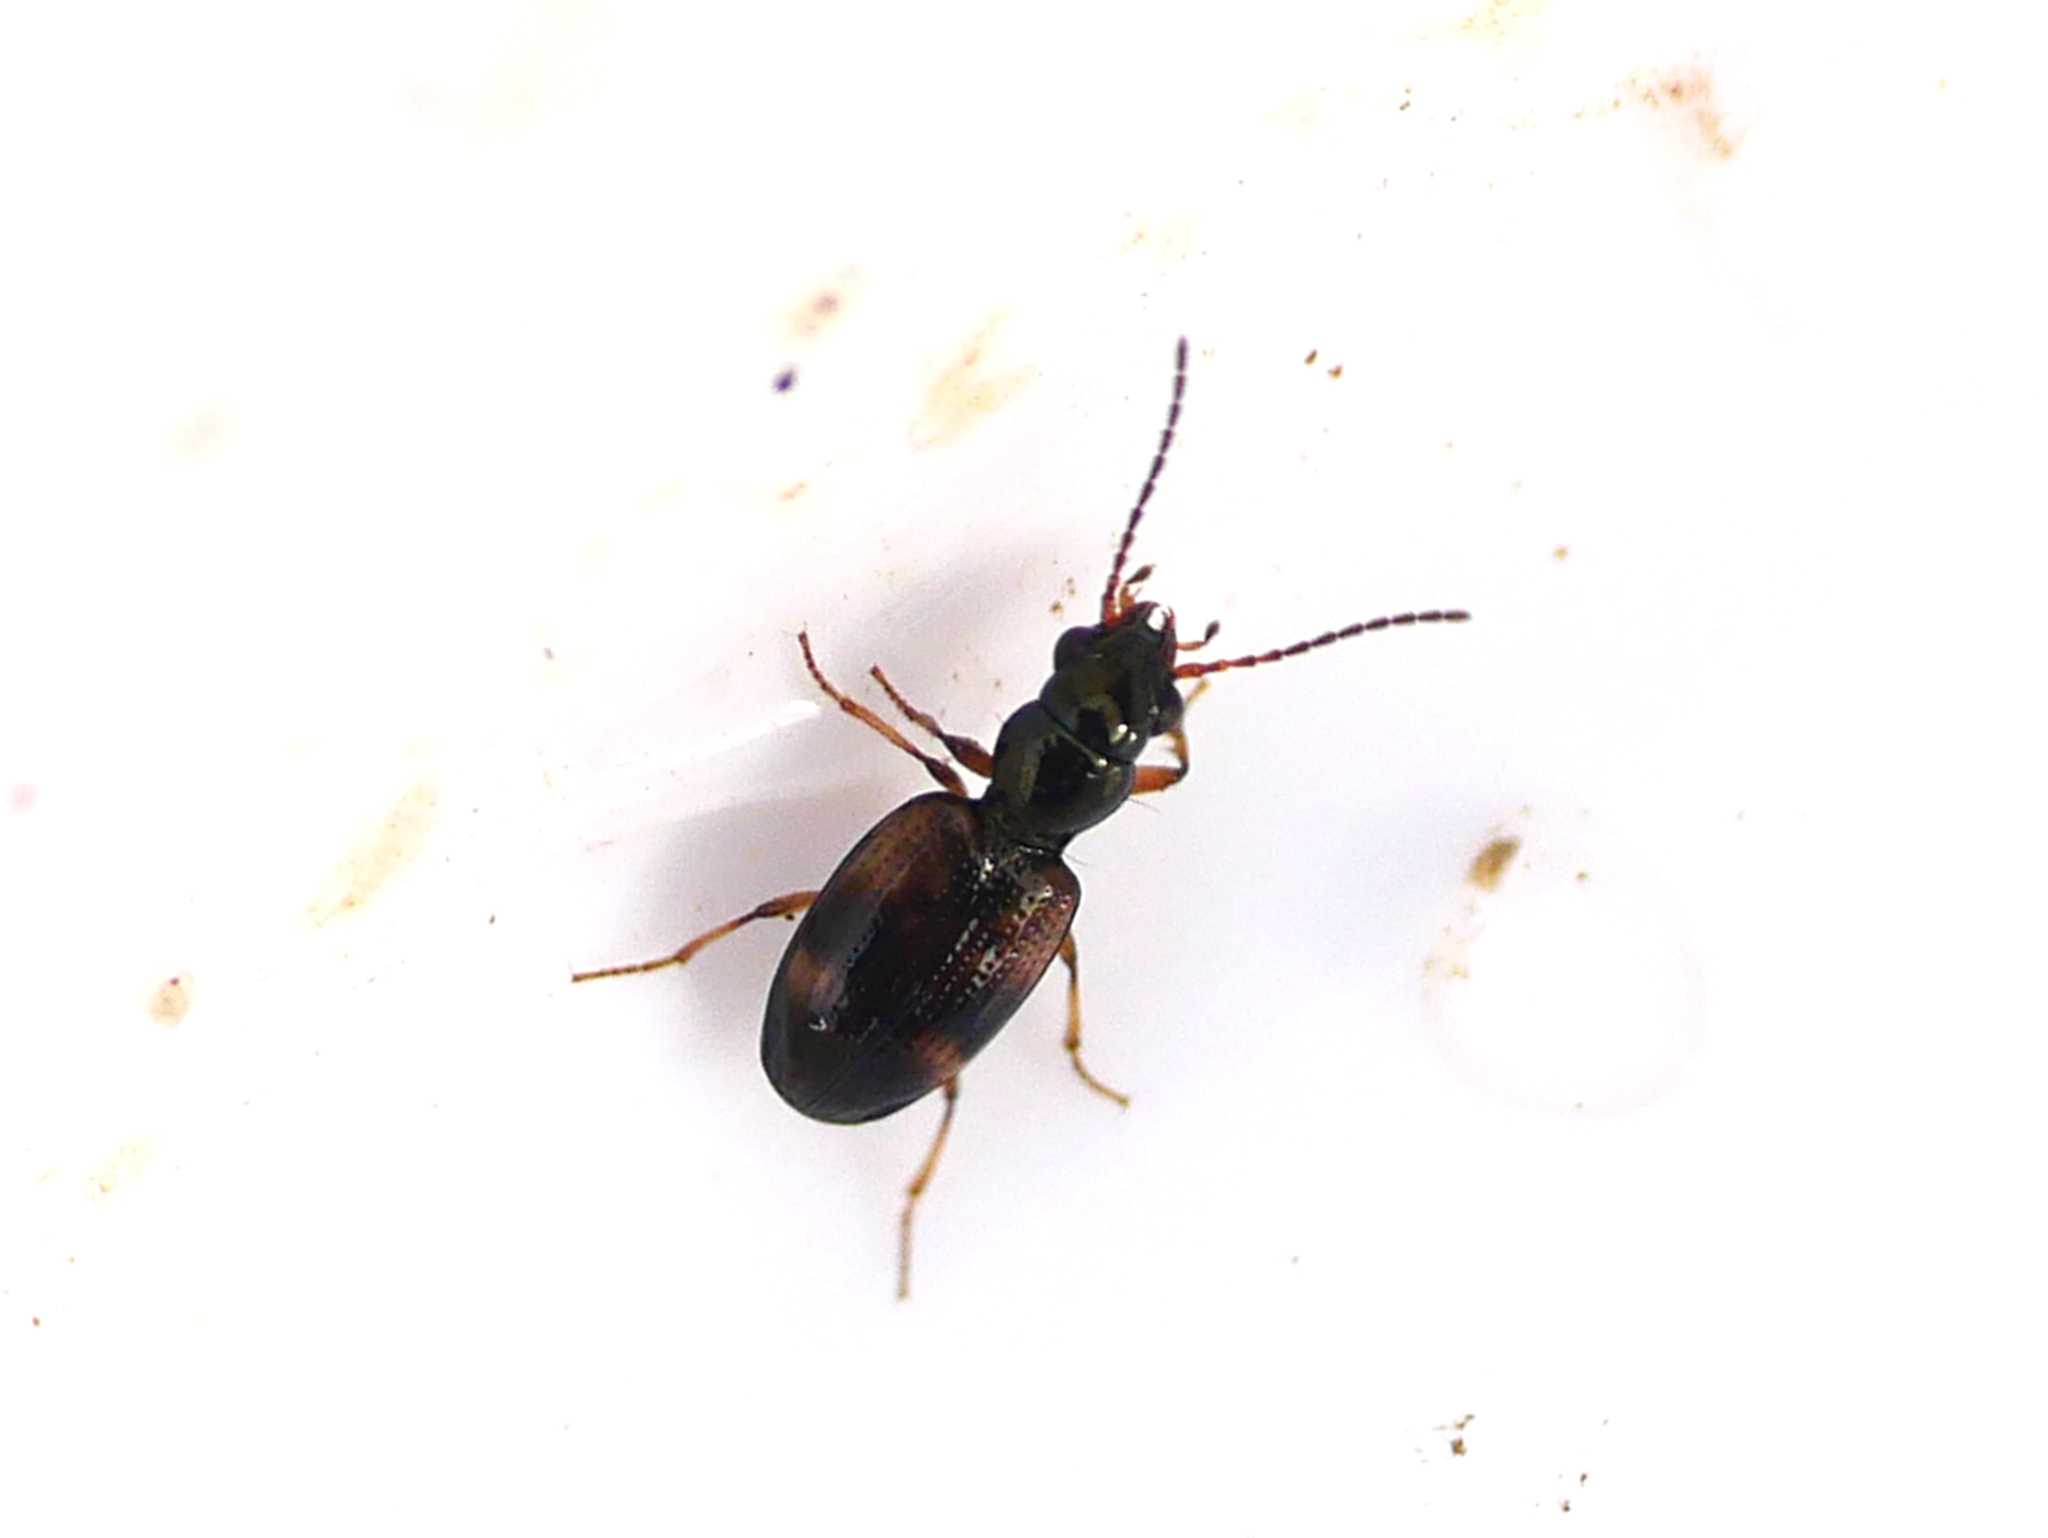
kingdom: Animalia
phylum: Arthropoda
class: Insecta
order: Coleoptera
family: Carabidae
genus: Bembidion
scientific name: Bembidion articulatum
